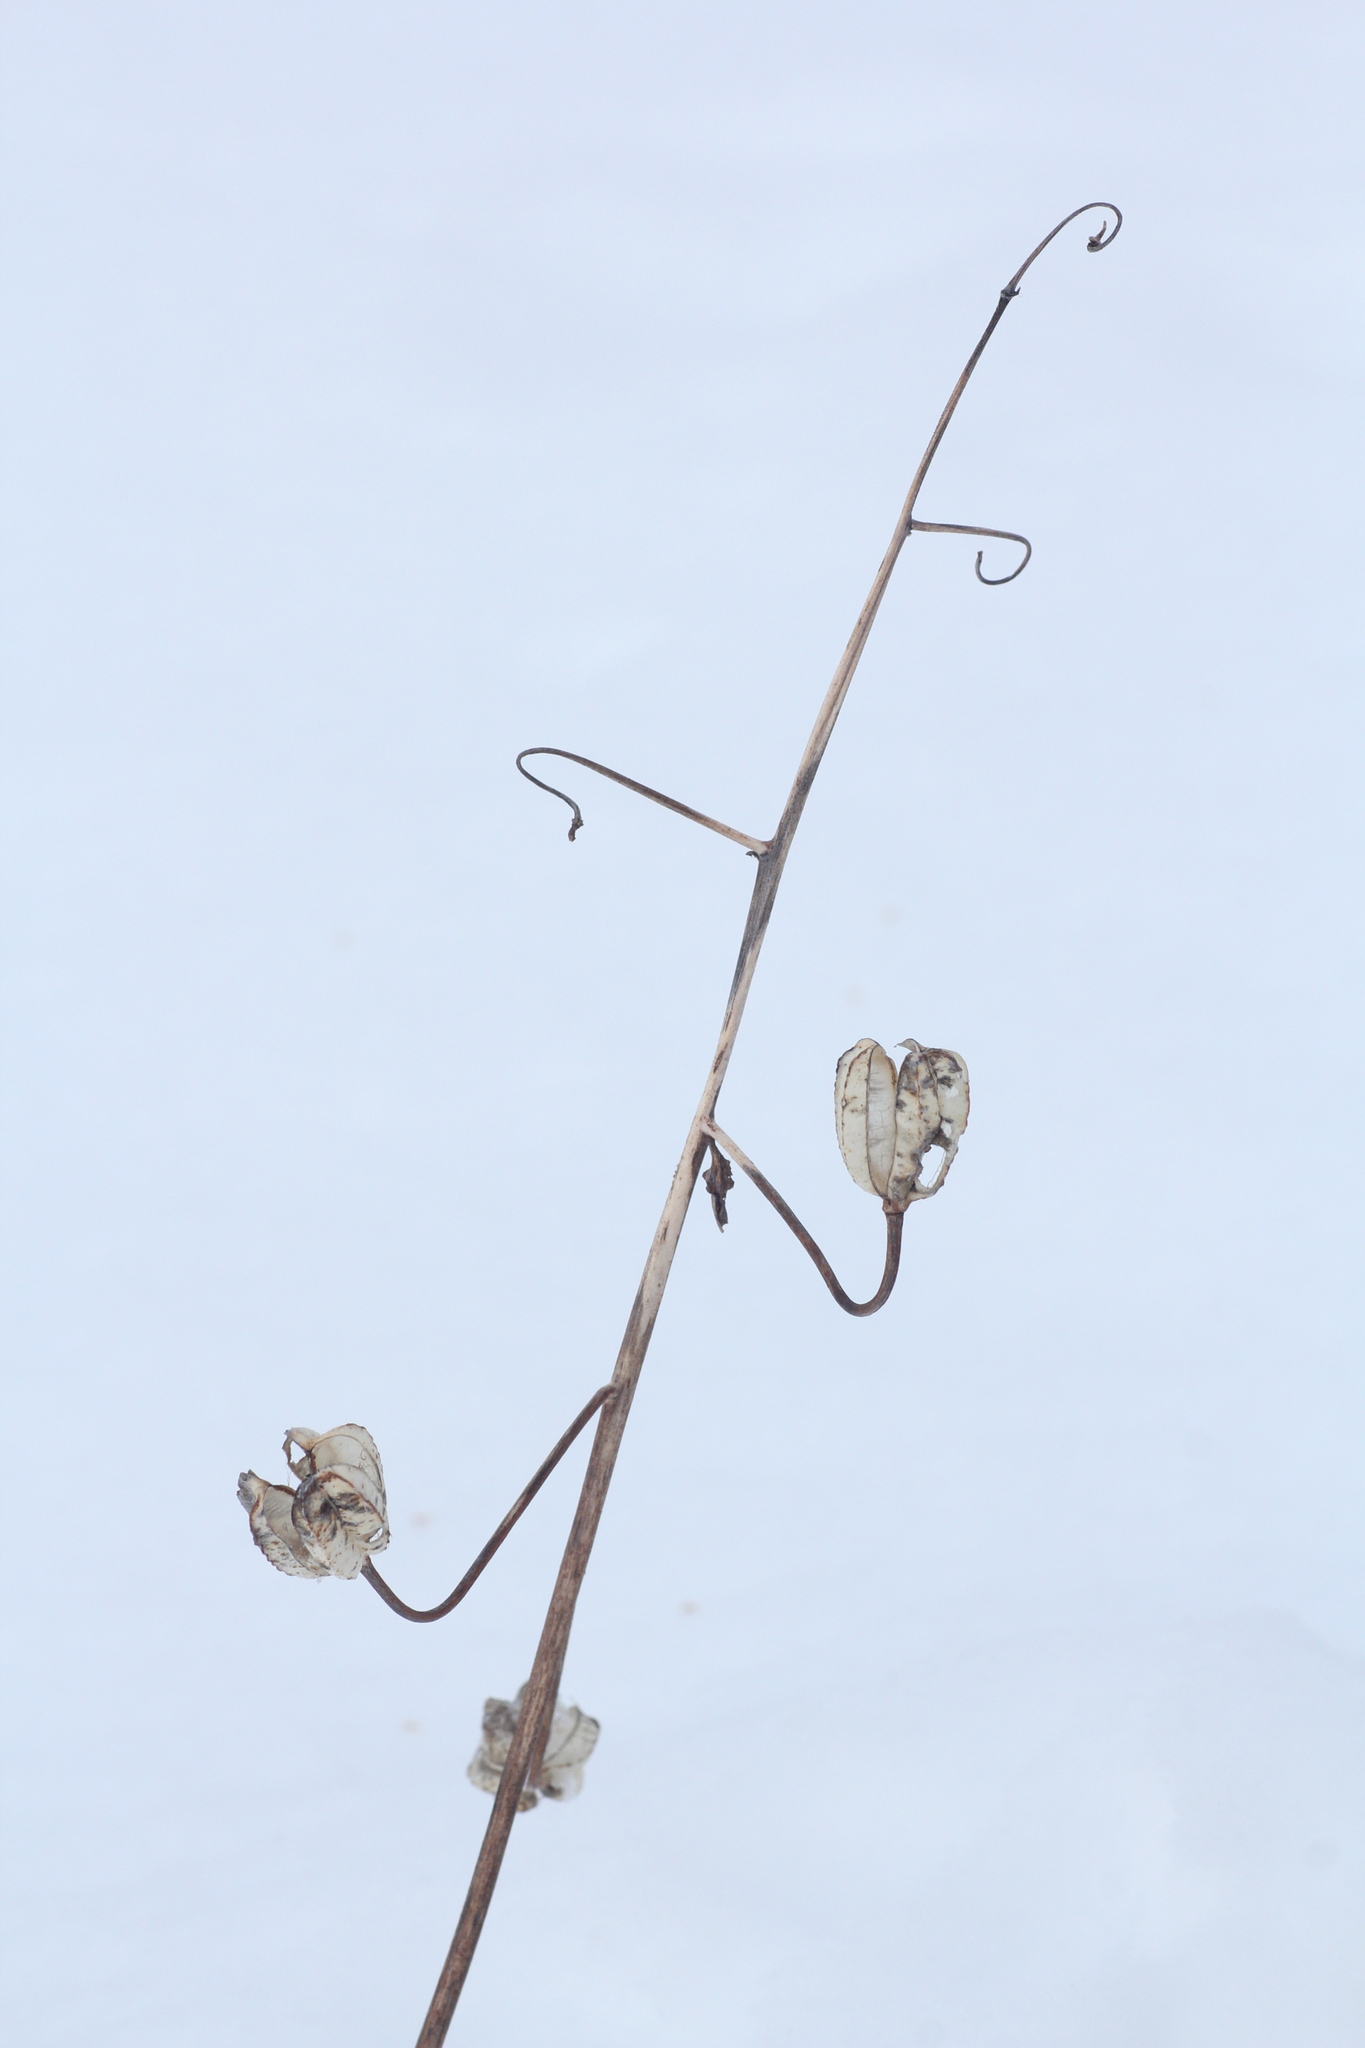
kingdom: Plantae
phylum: Tracheophyta
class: Liliopsida
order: Liliales
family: Liliaceae
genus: Lilium
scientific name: Lilium martagon
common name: Martagon lily
